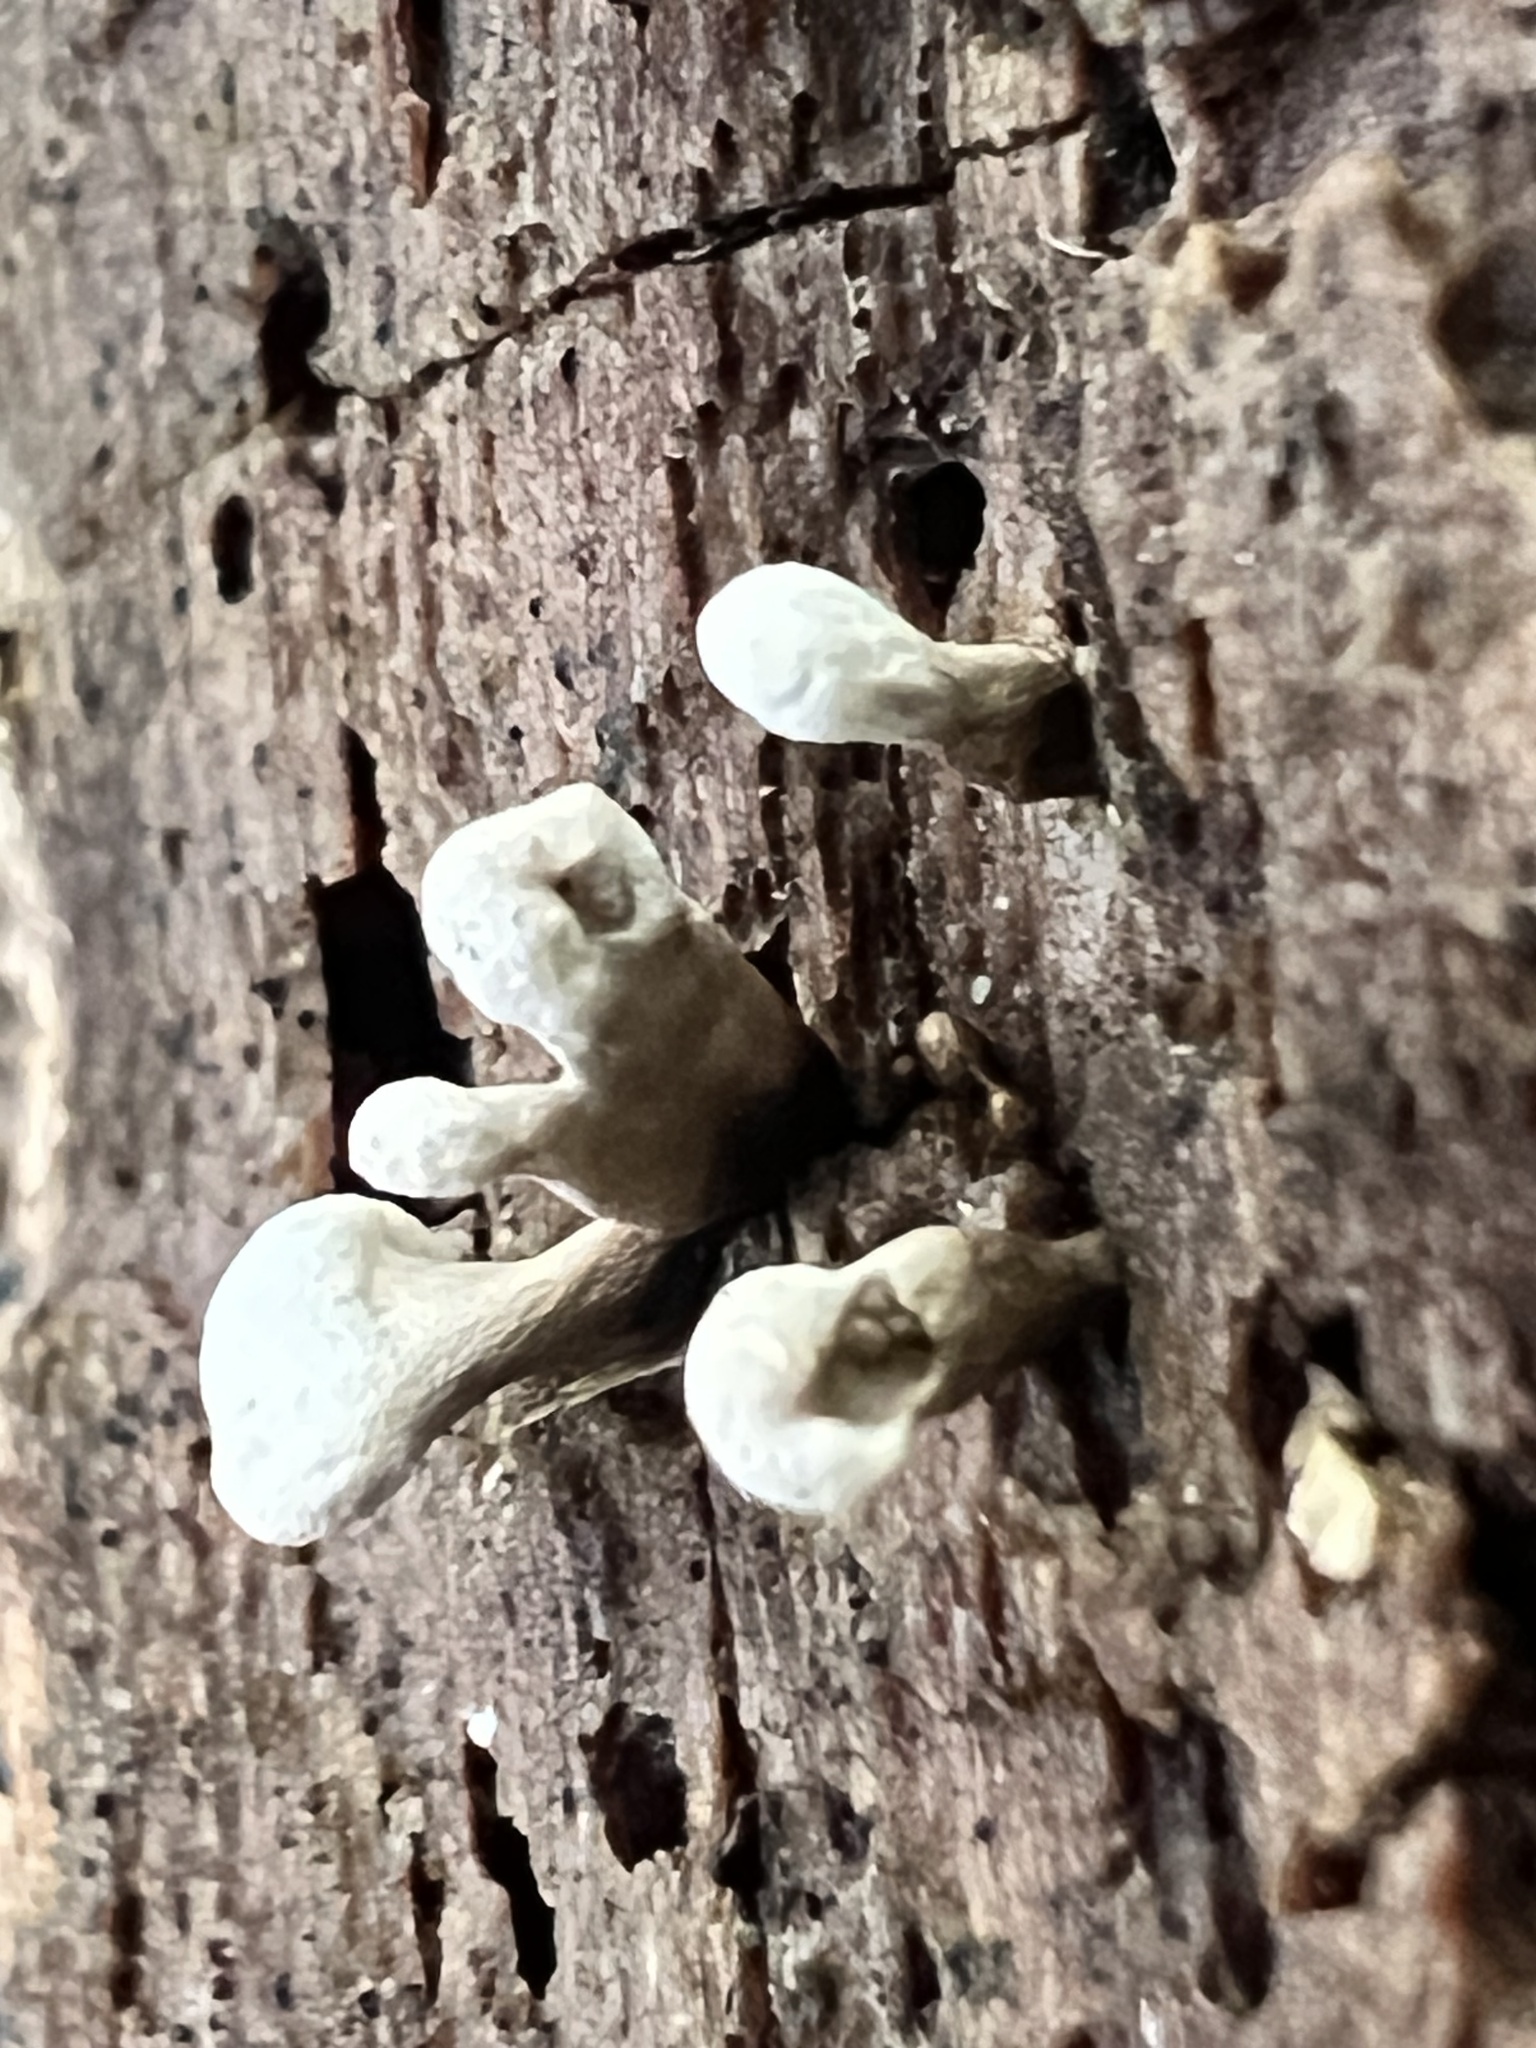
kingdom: Fungi
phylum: Basidiomycota
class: Atractiellomycetes
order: Atractiellales
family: Phleogenaceae
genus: Phleogena
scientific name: Phleogena faginea
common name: Fenugreek stalkball
